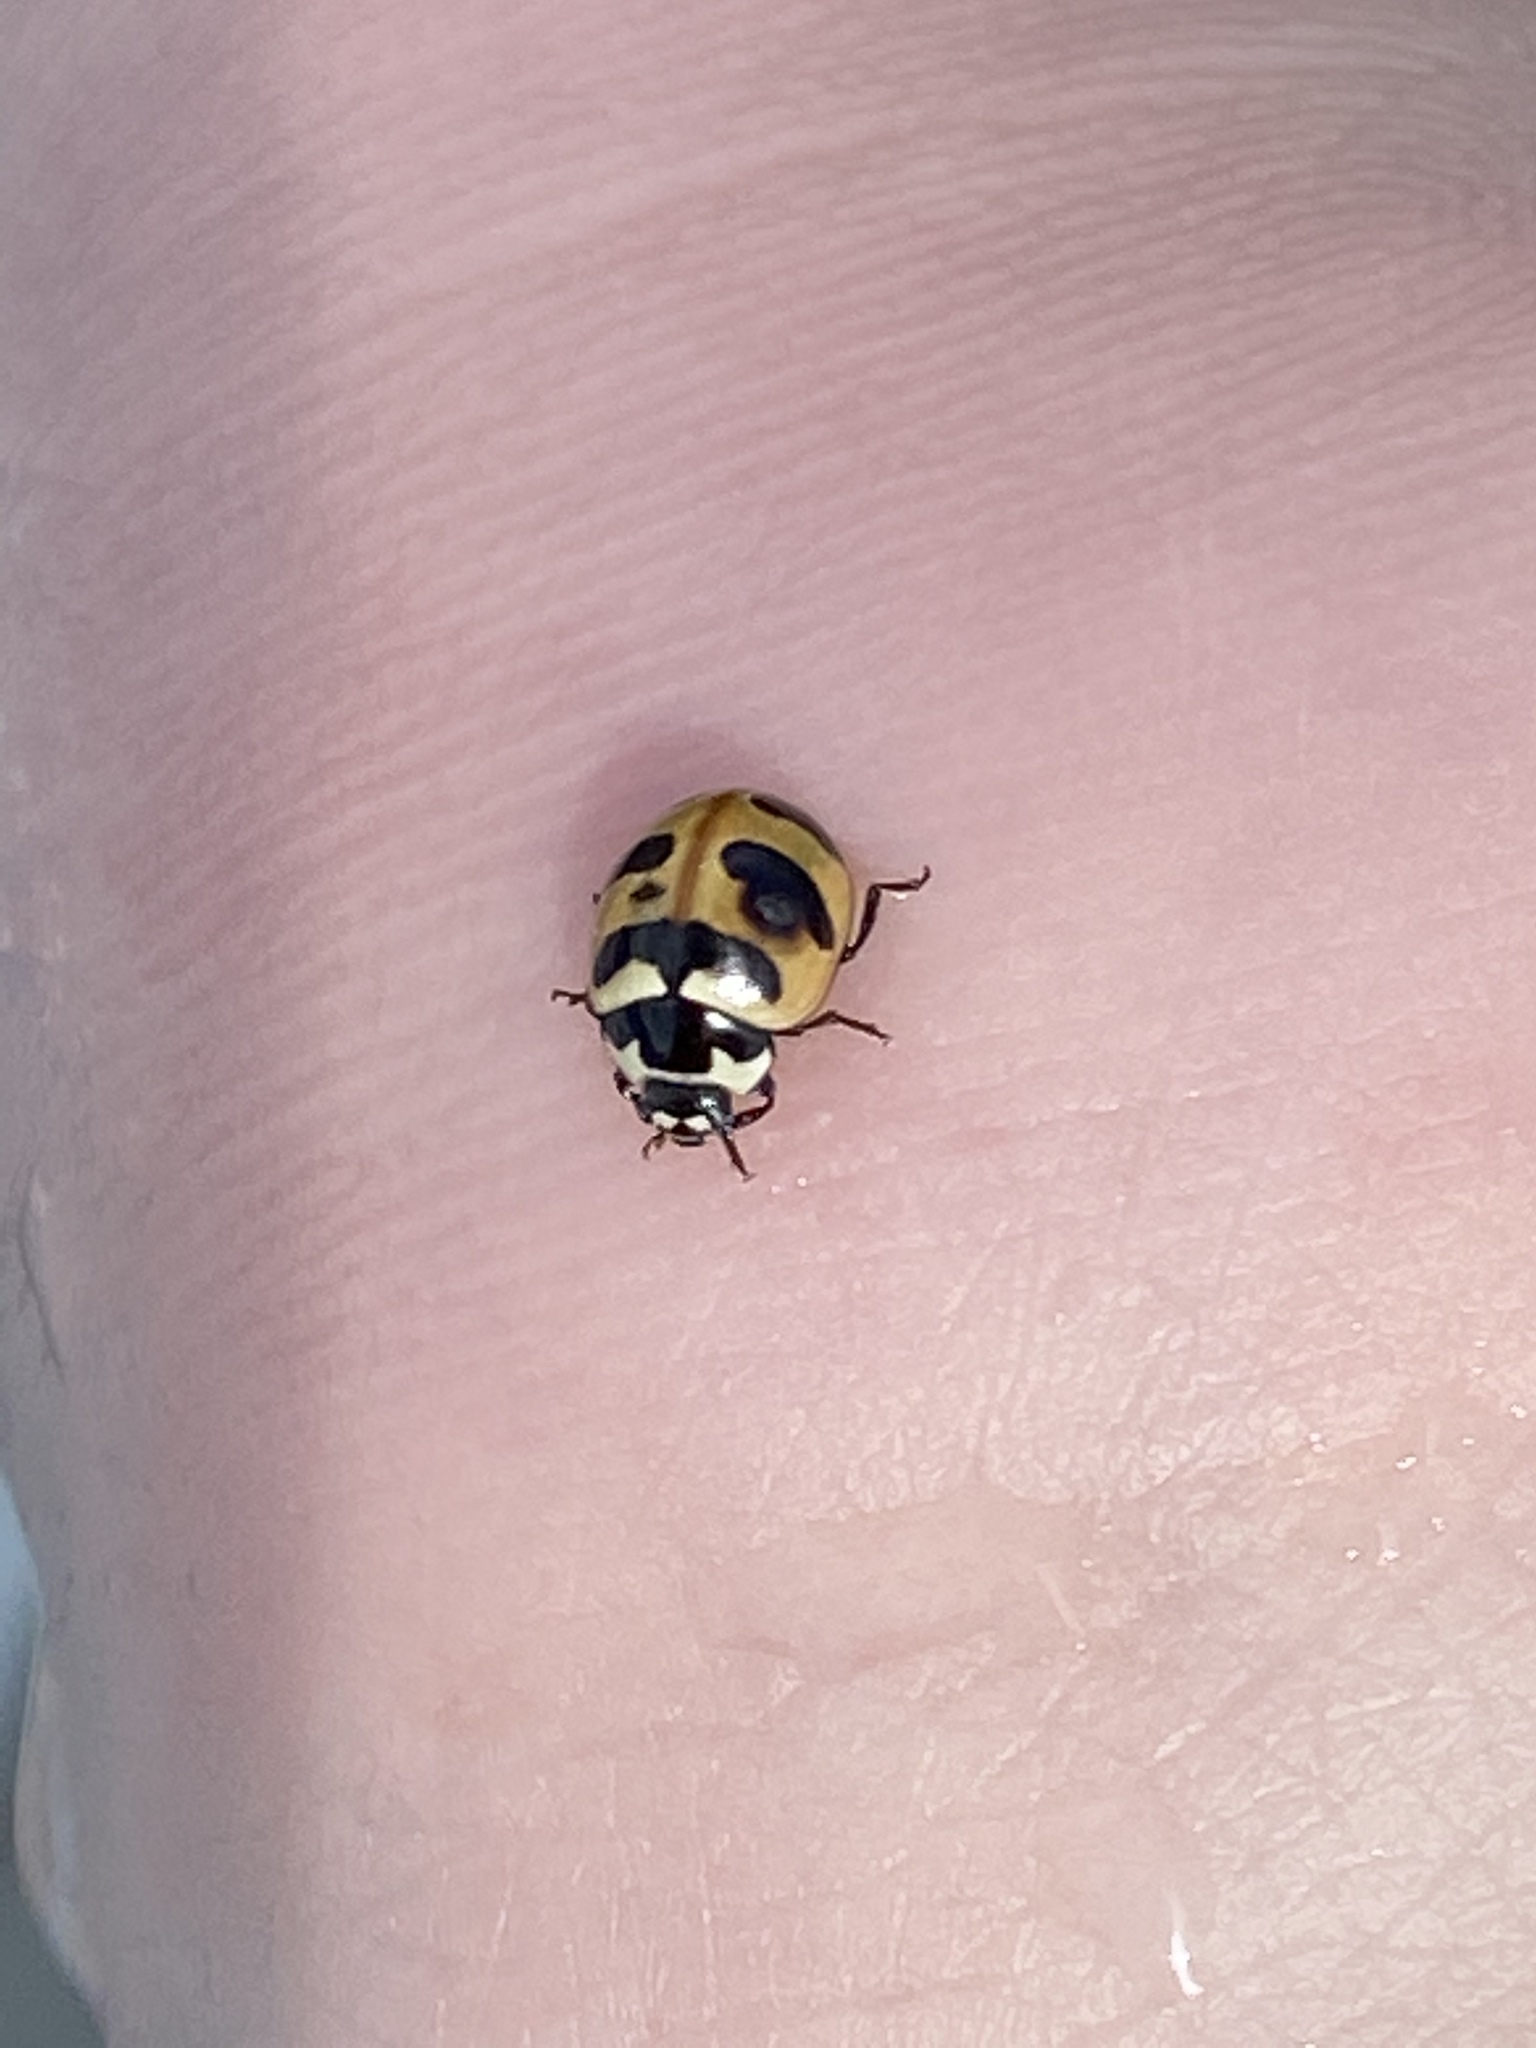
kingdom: Animalia
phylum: Arthropoda
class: Insecta
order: Coleoptera
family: Coccinellidae
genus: Coccinella
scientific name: Coccinella trifasciata
